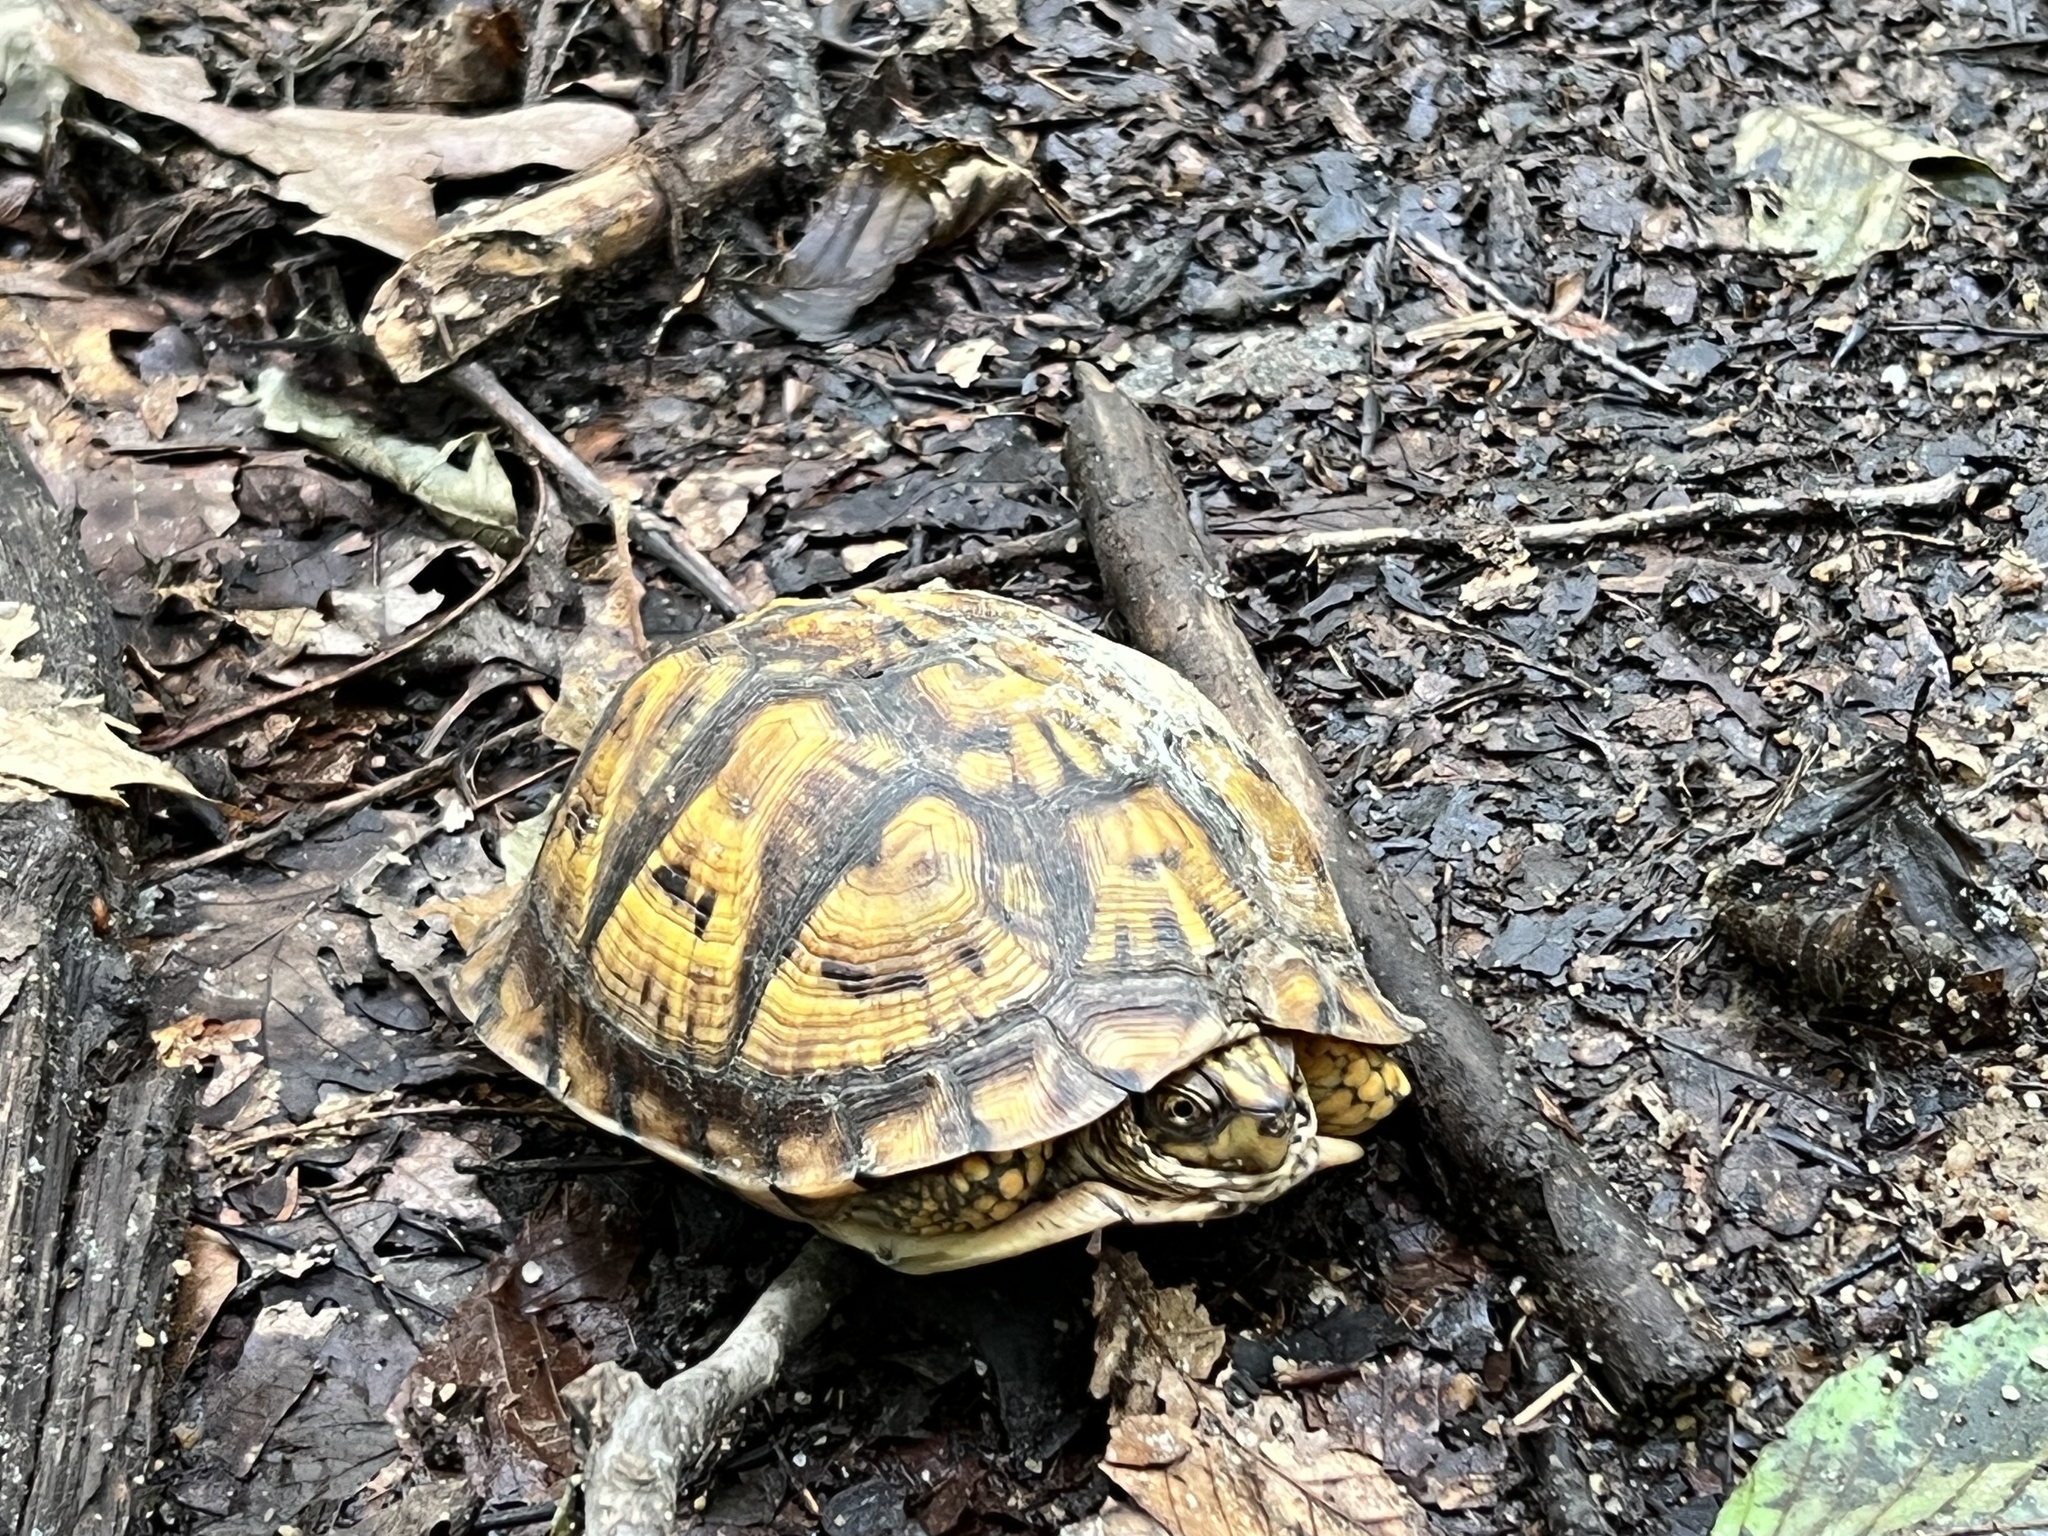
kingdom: Animalia
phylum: Chordata
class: Testudines
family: Emydidae
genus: Terrapene
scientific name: Terrapene carolina
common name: Common box turtle
